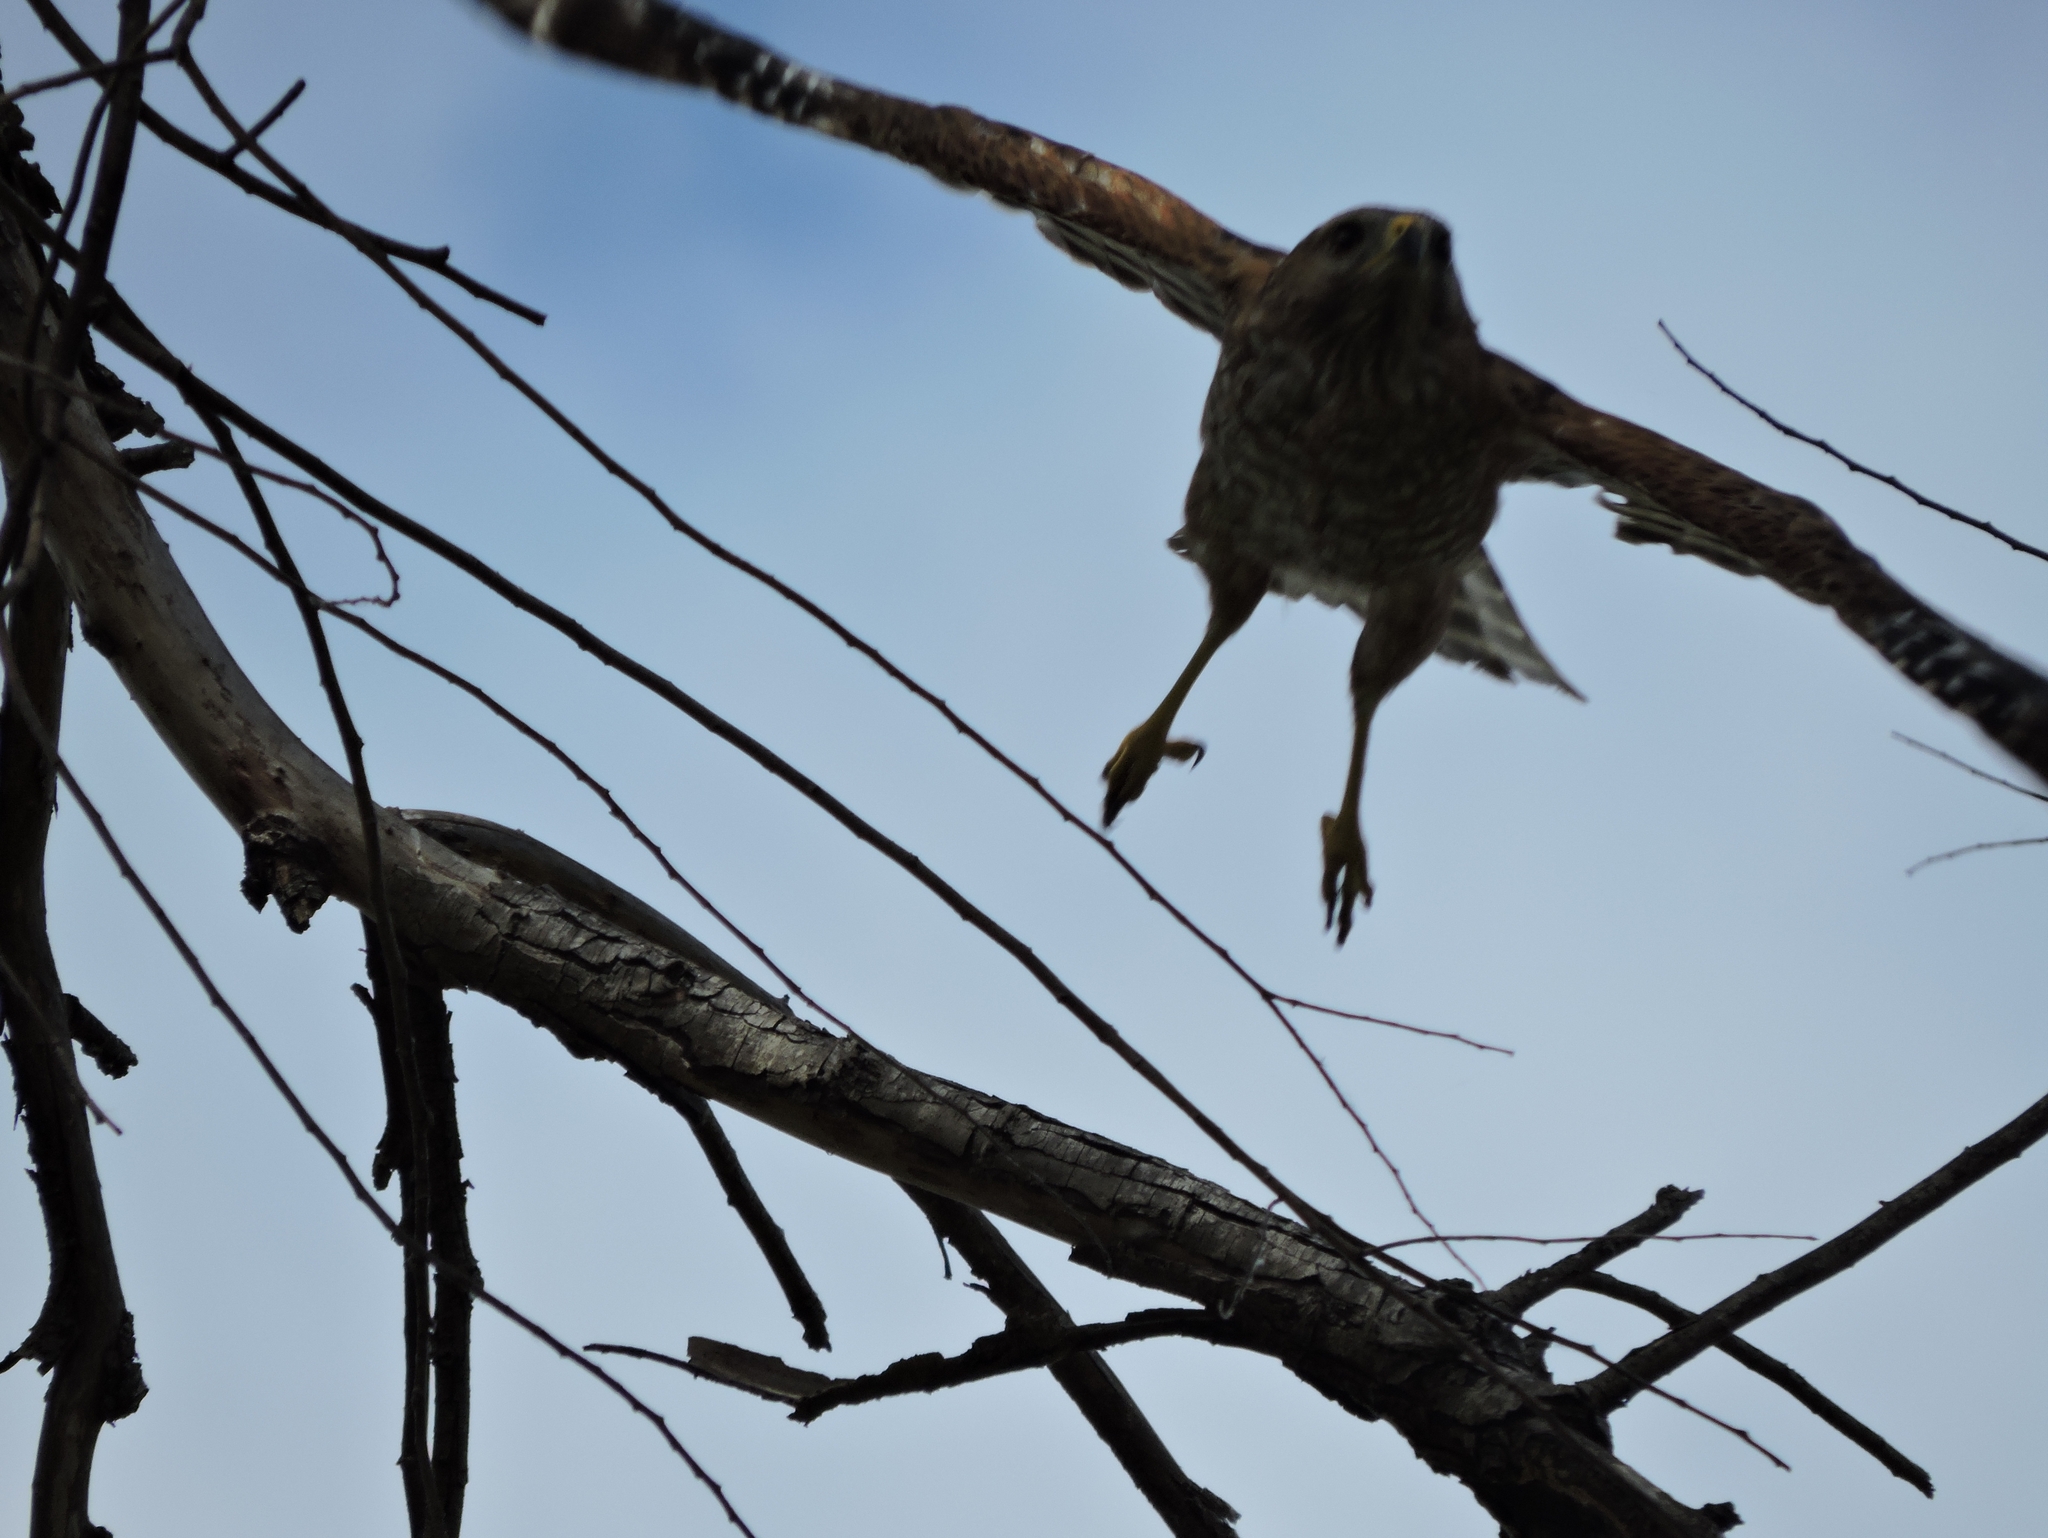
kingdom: Animalia
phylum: Chordata
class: Aves
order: Accipitriformes
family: Accipitridae
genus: Buteo
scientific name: Buteo lineatus
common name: Red-shouldered hawk
